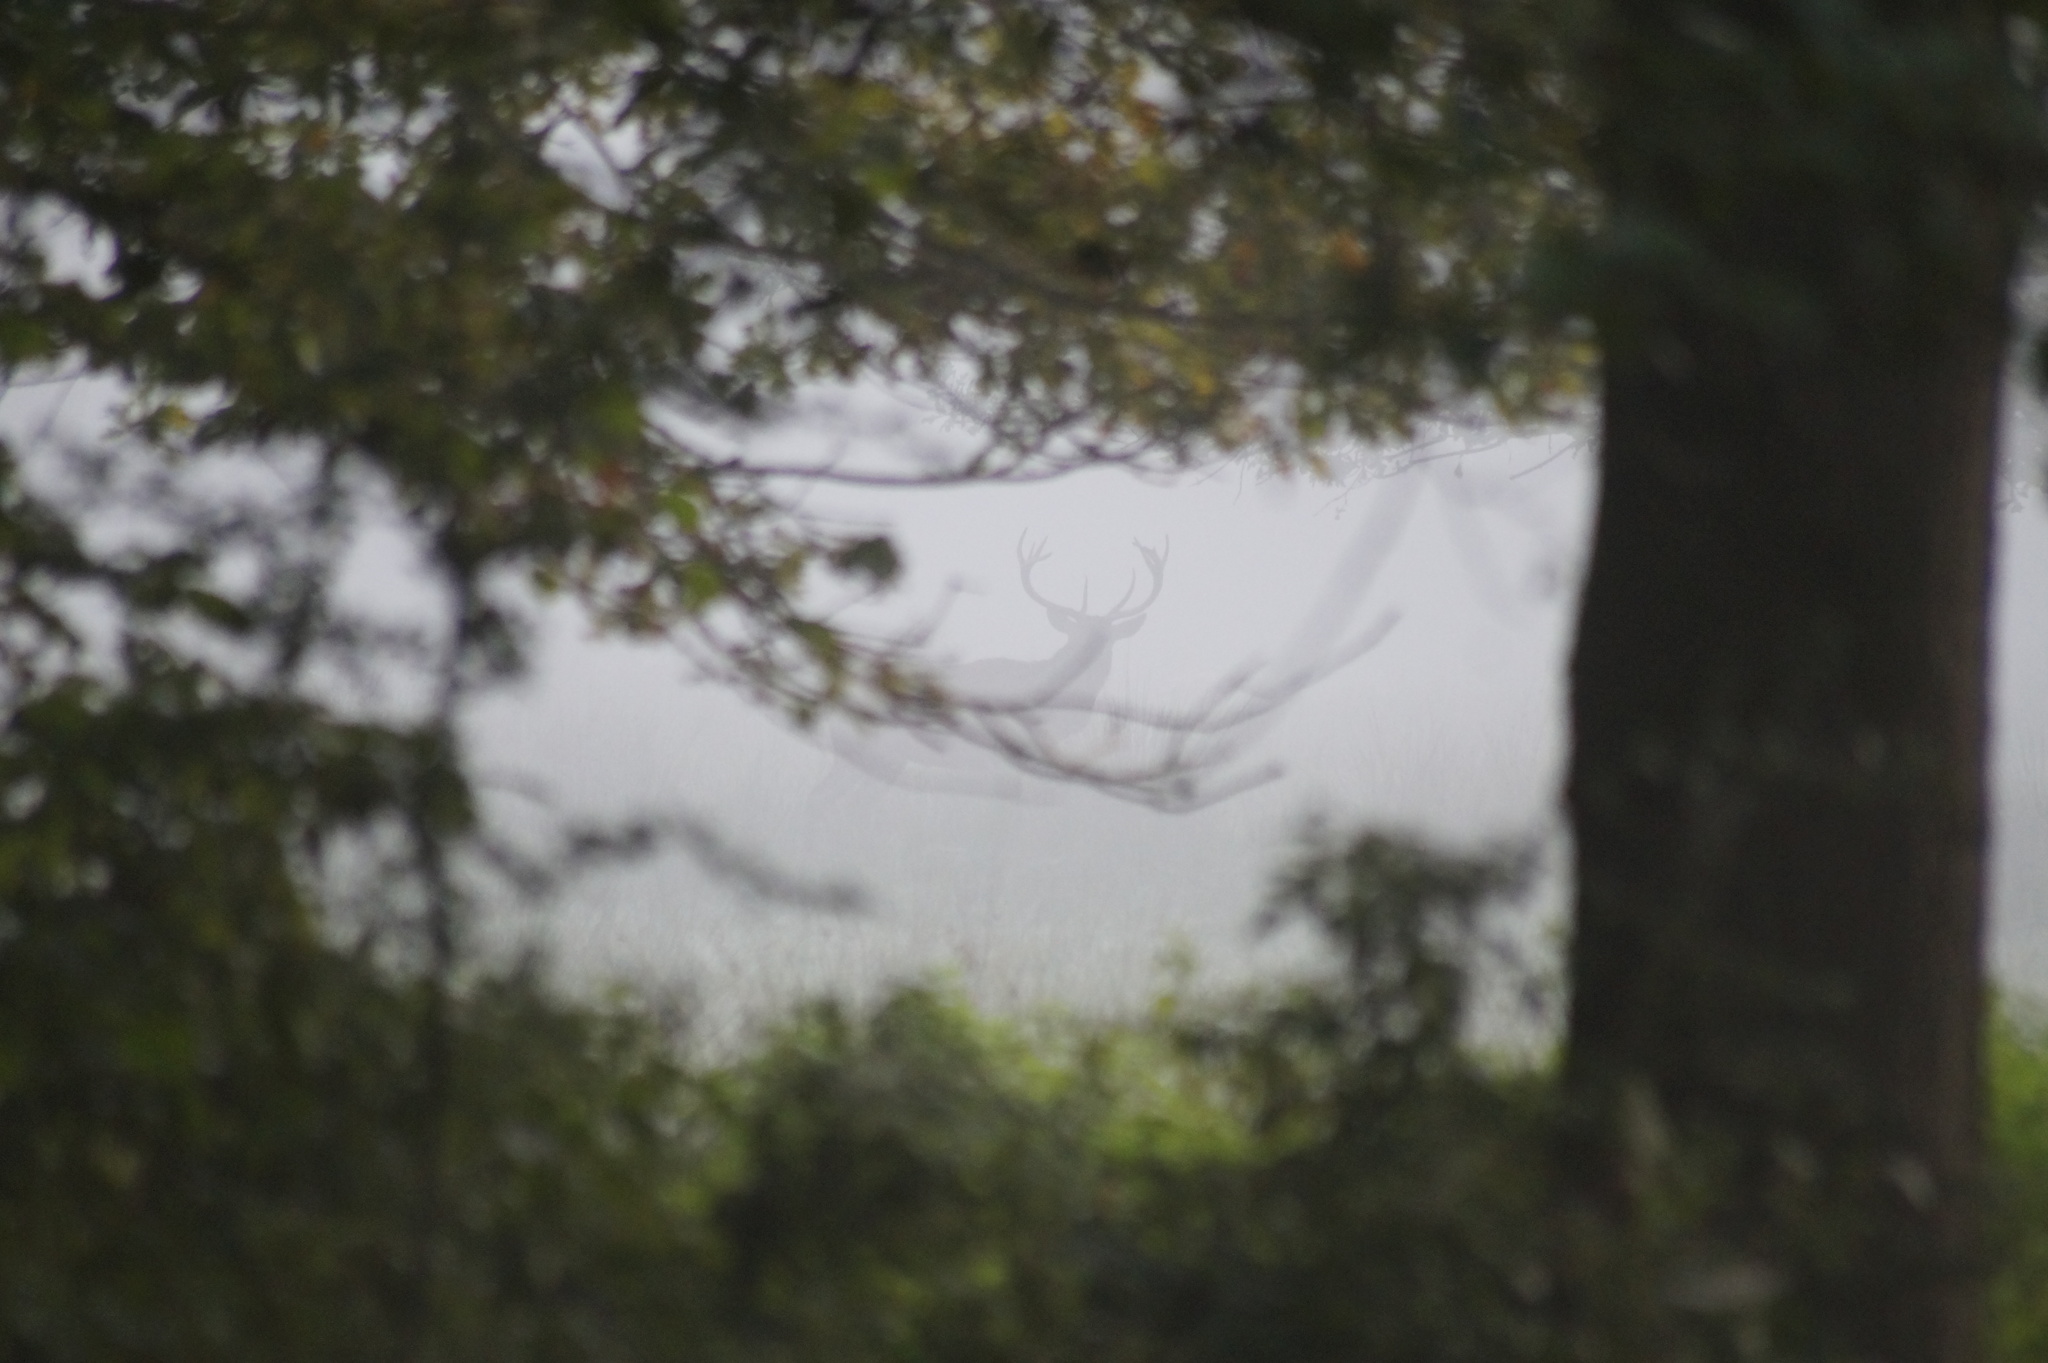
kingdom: Animalia
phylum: Chordata
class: Mammalia
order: Artiodactyla
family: Cervidae
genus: Cervus
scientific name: Cervus elaphus
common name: Red deer
